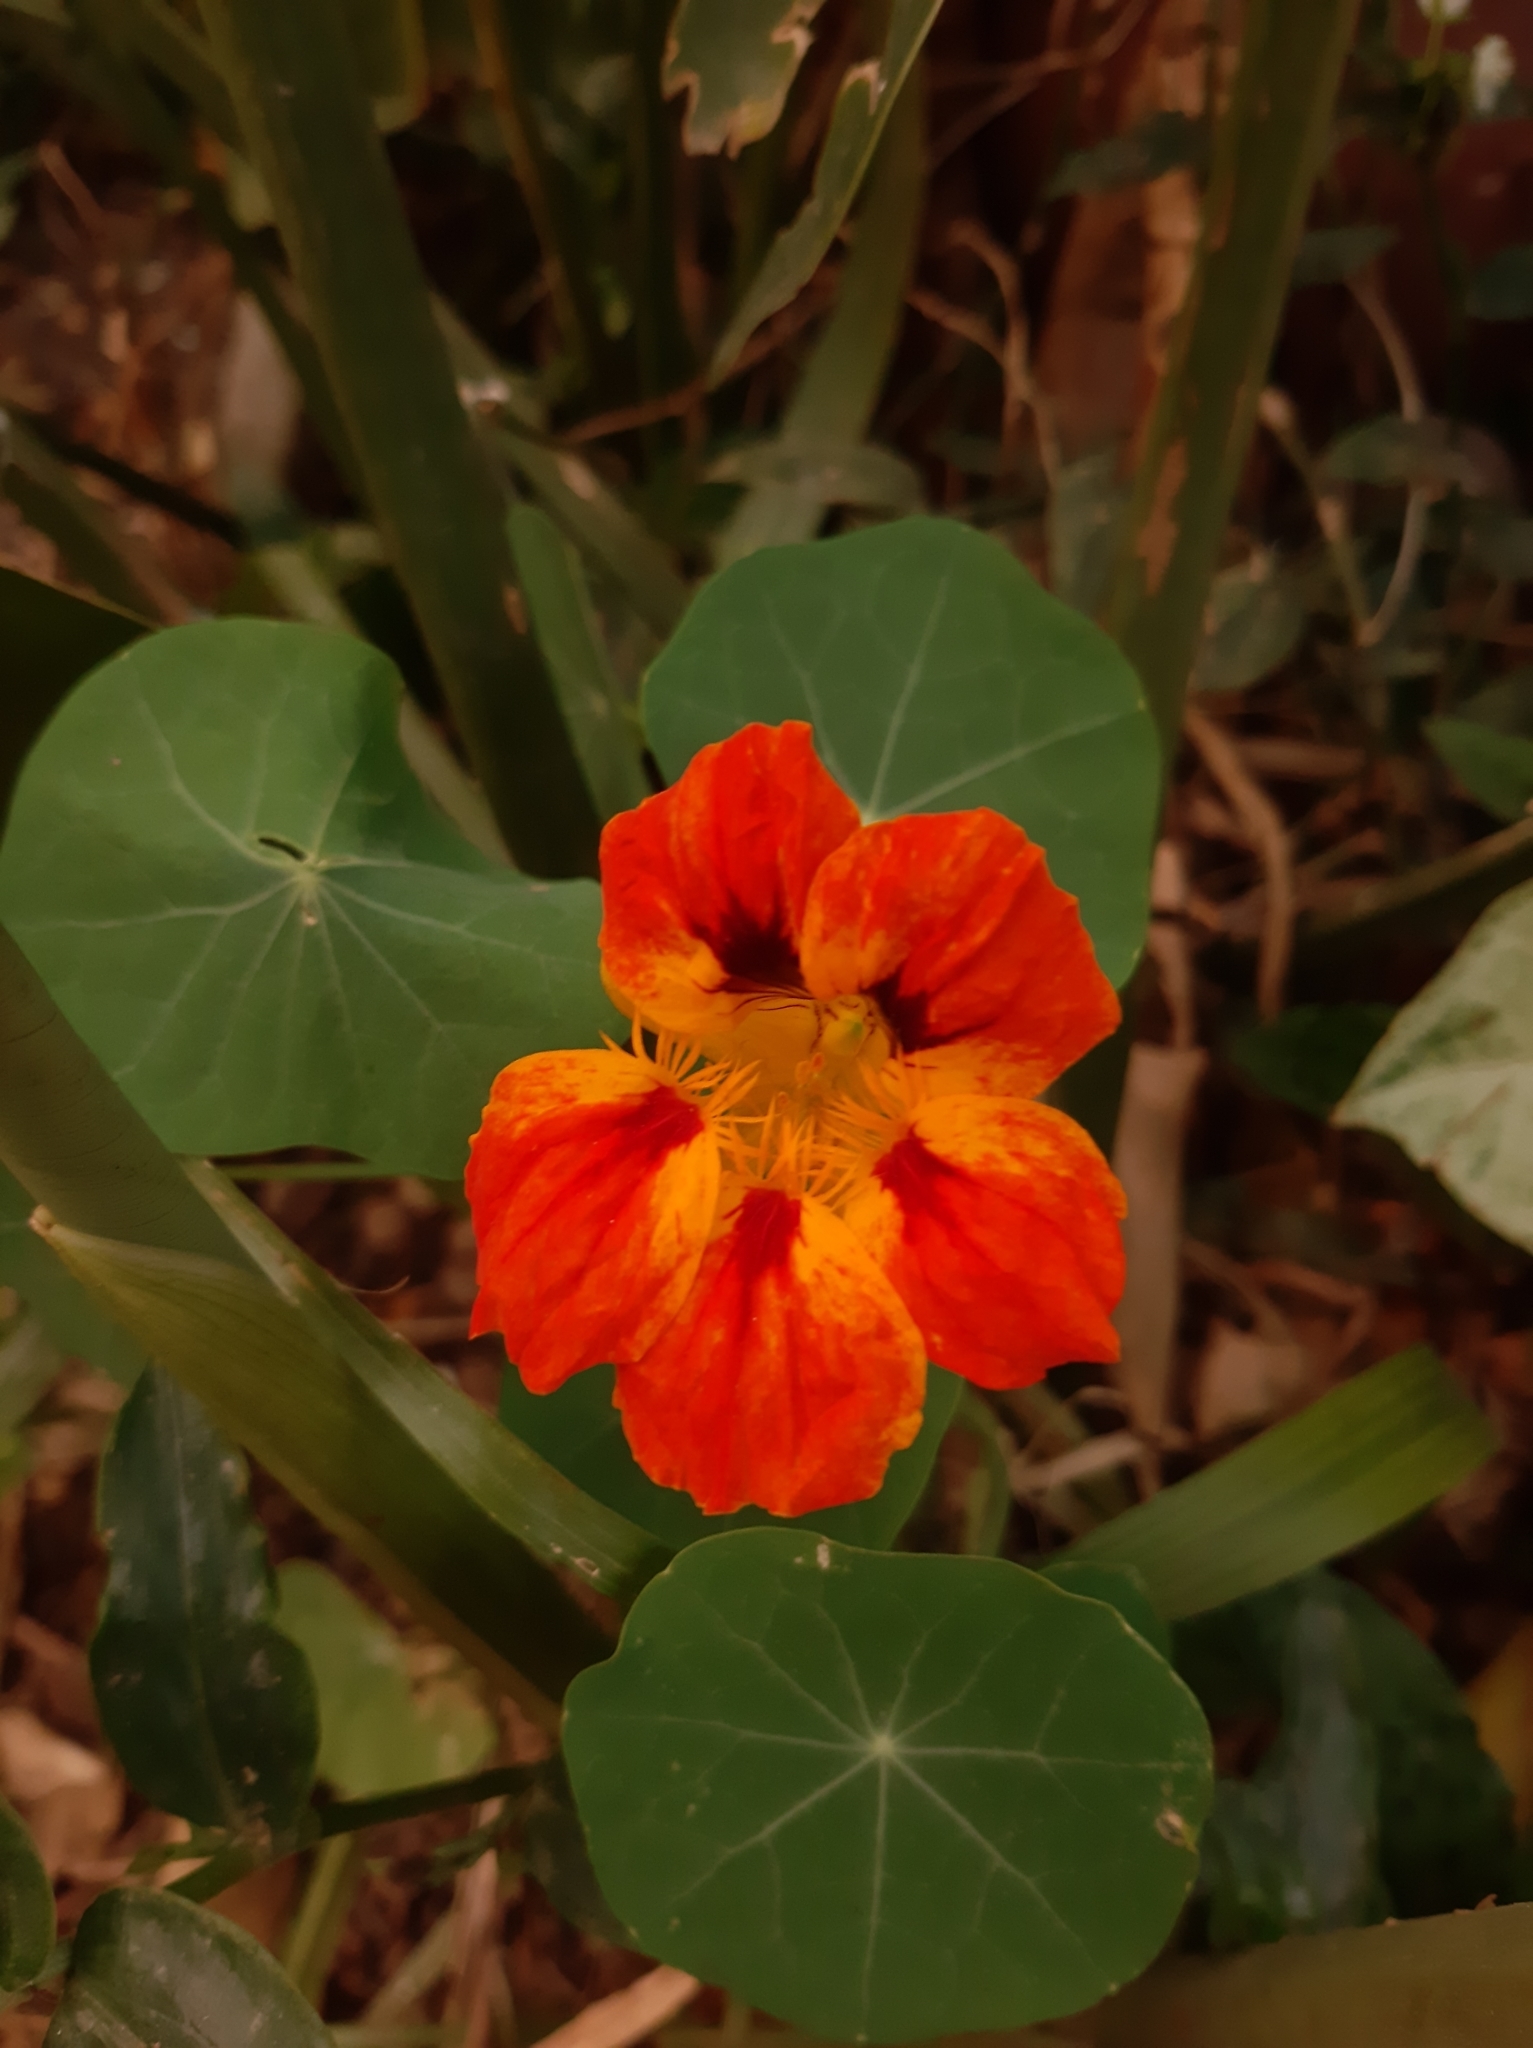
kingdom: Plantae
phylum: Tracheophyta
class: Magnoliopsida
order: Brassicales
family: Tropaeolaceae
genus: Tropaeolum
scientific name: Tropaeolum majus
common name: Nasturtium
